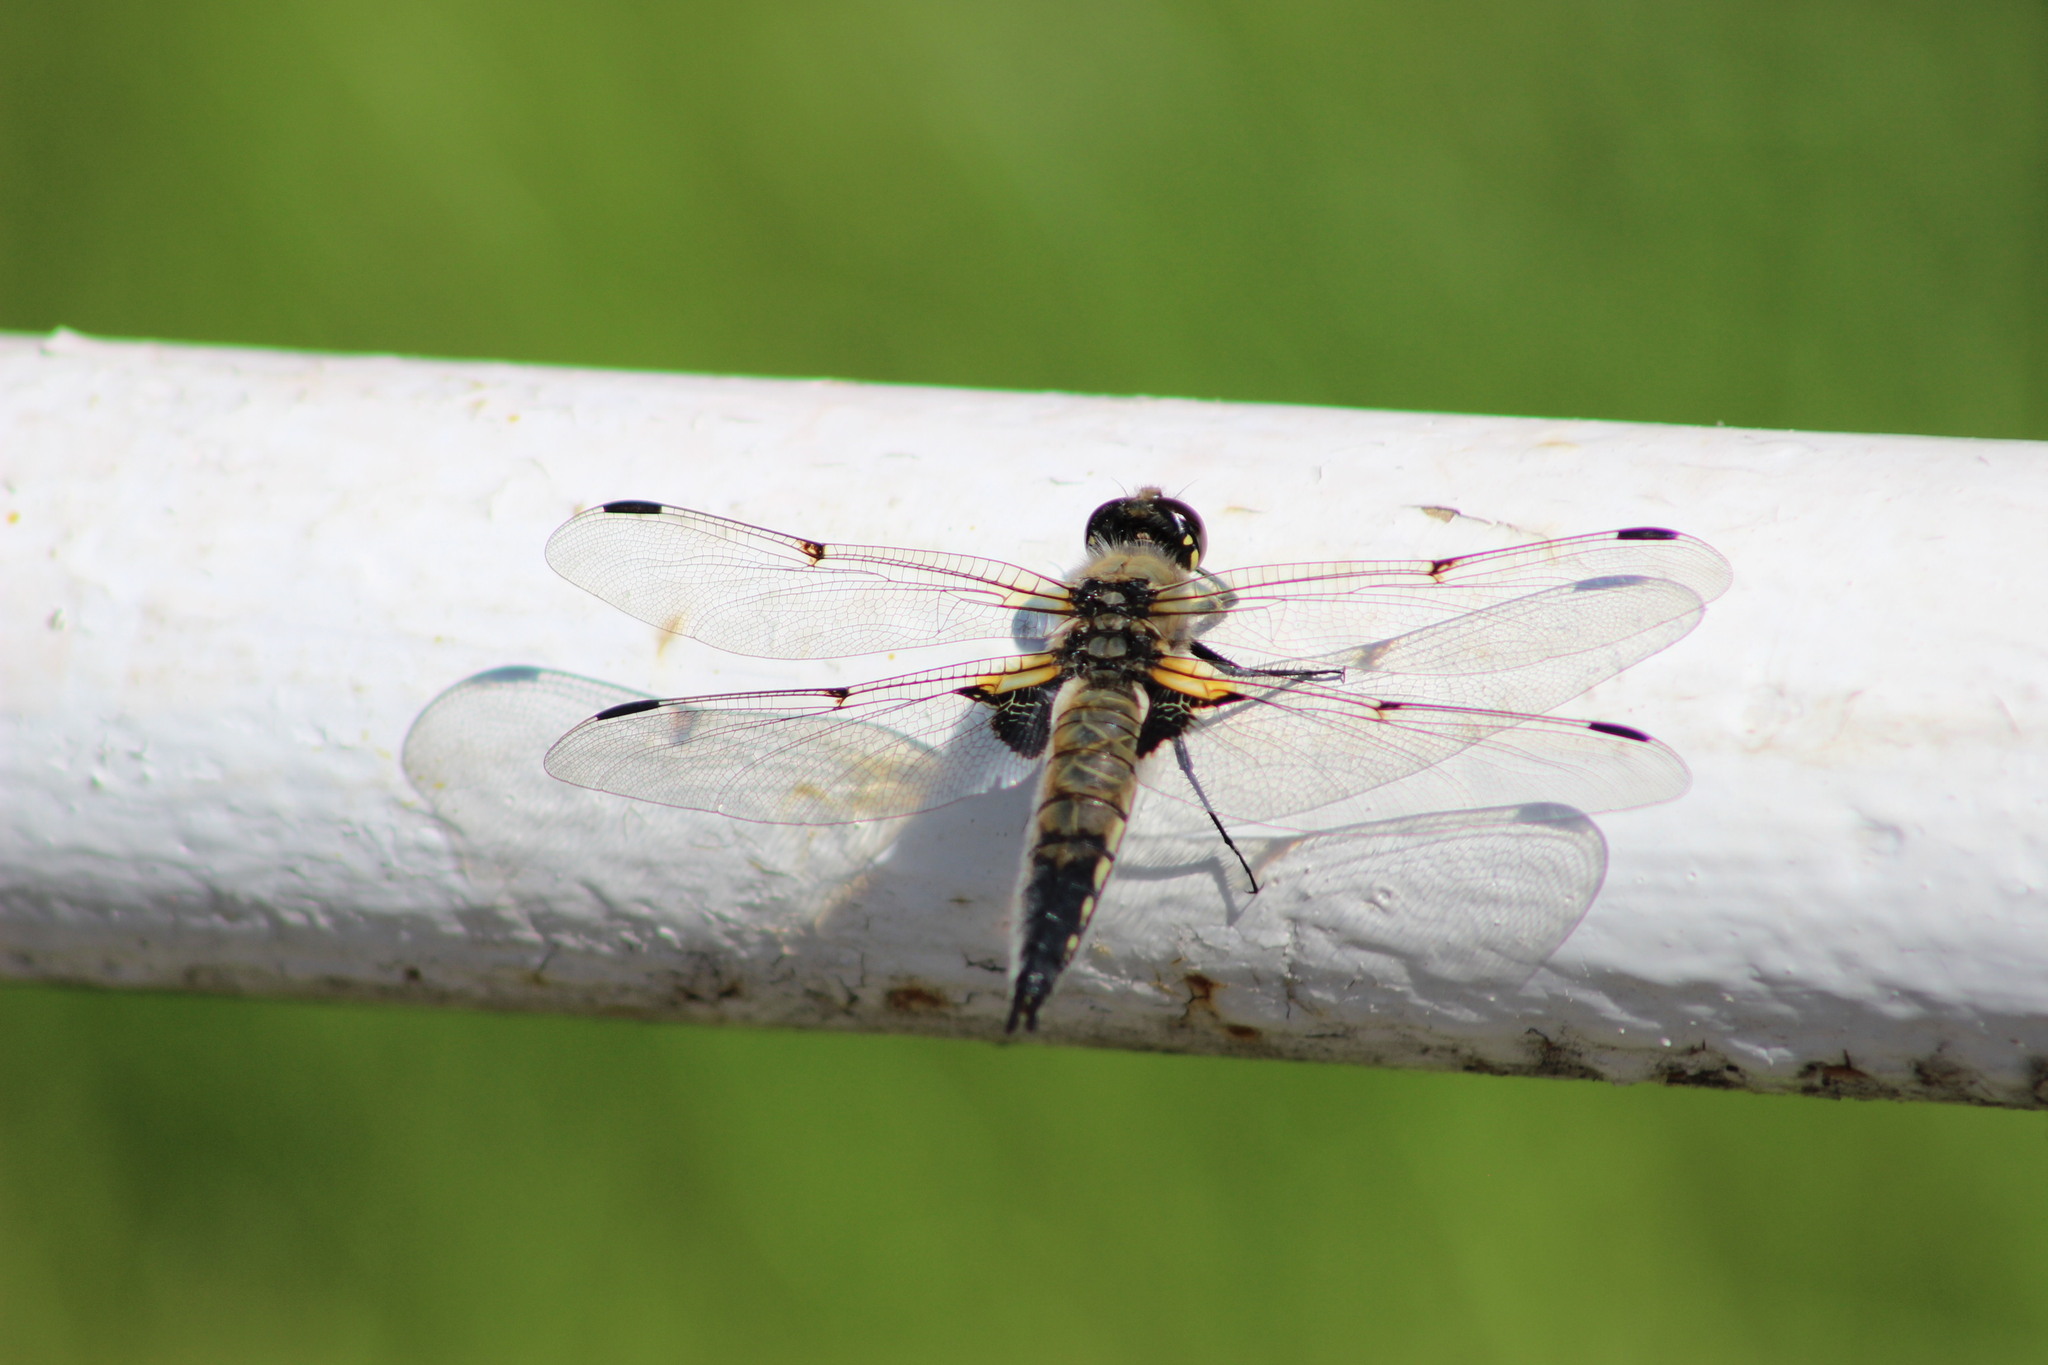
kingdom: Animalia
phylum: Arthropoda
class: Insecta
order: Odonata
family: Libellulidae
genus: Libellula
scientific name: Libellula quadrimaculata
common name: Four-spotted chaser
